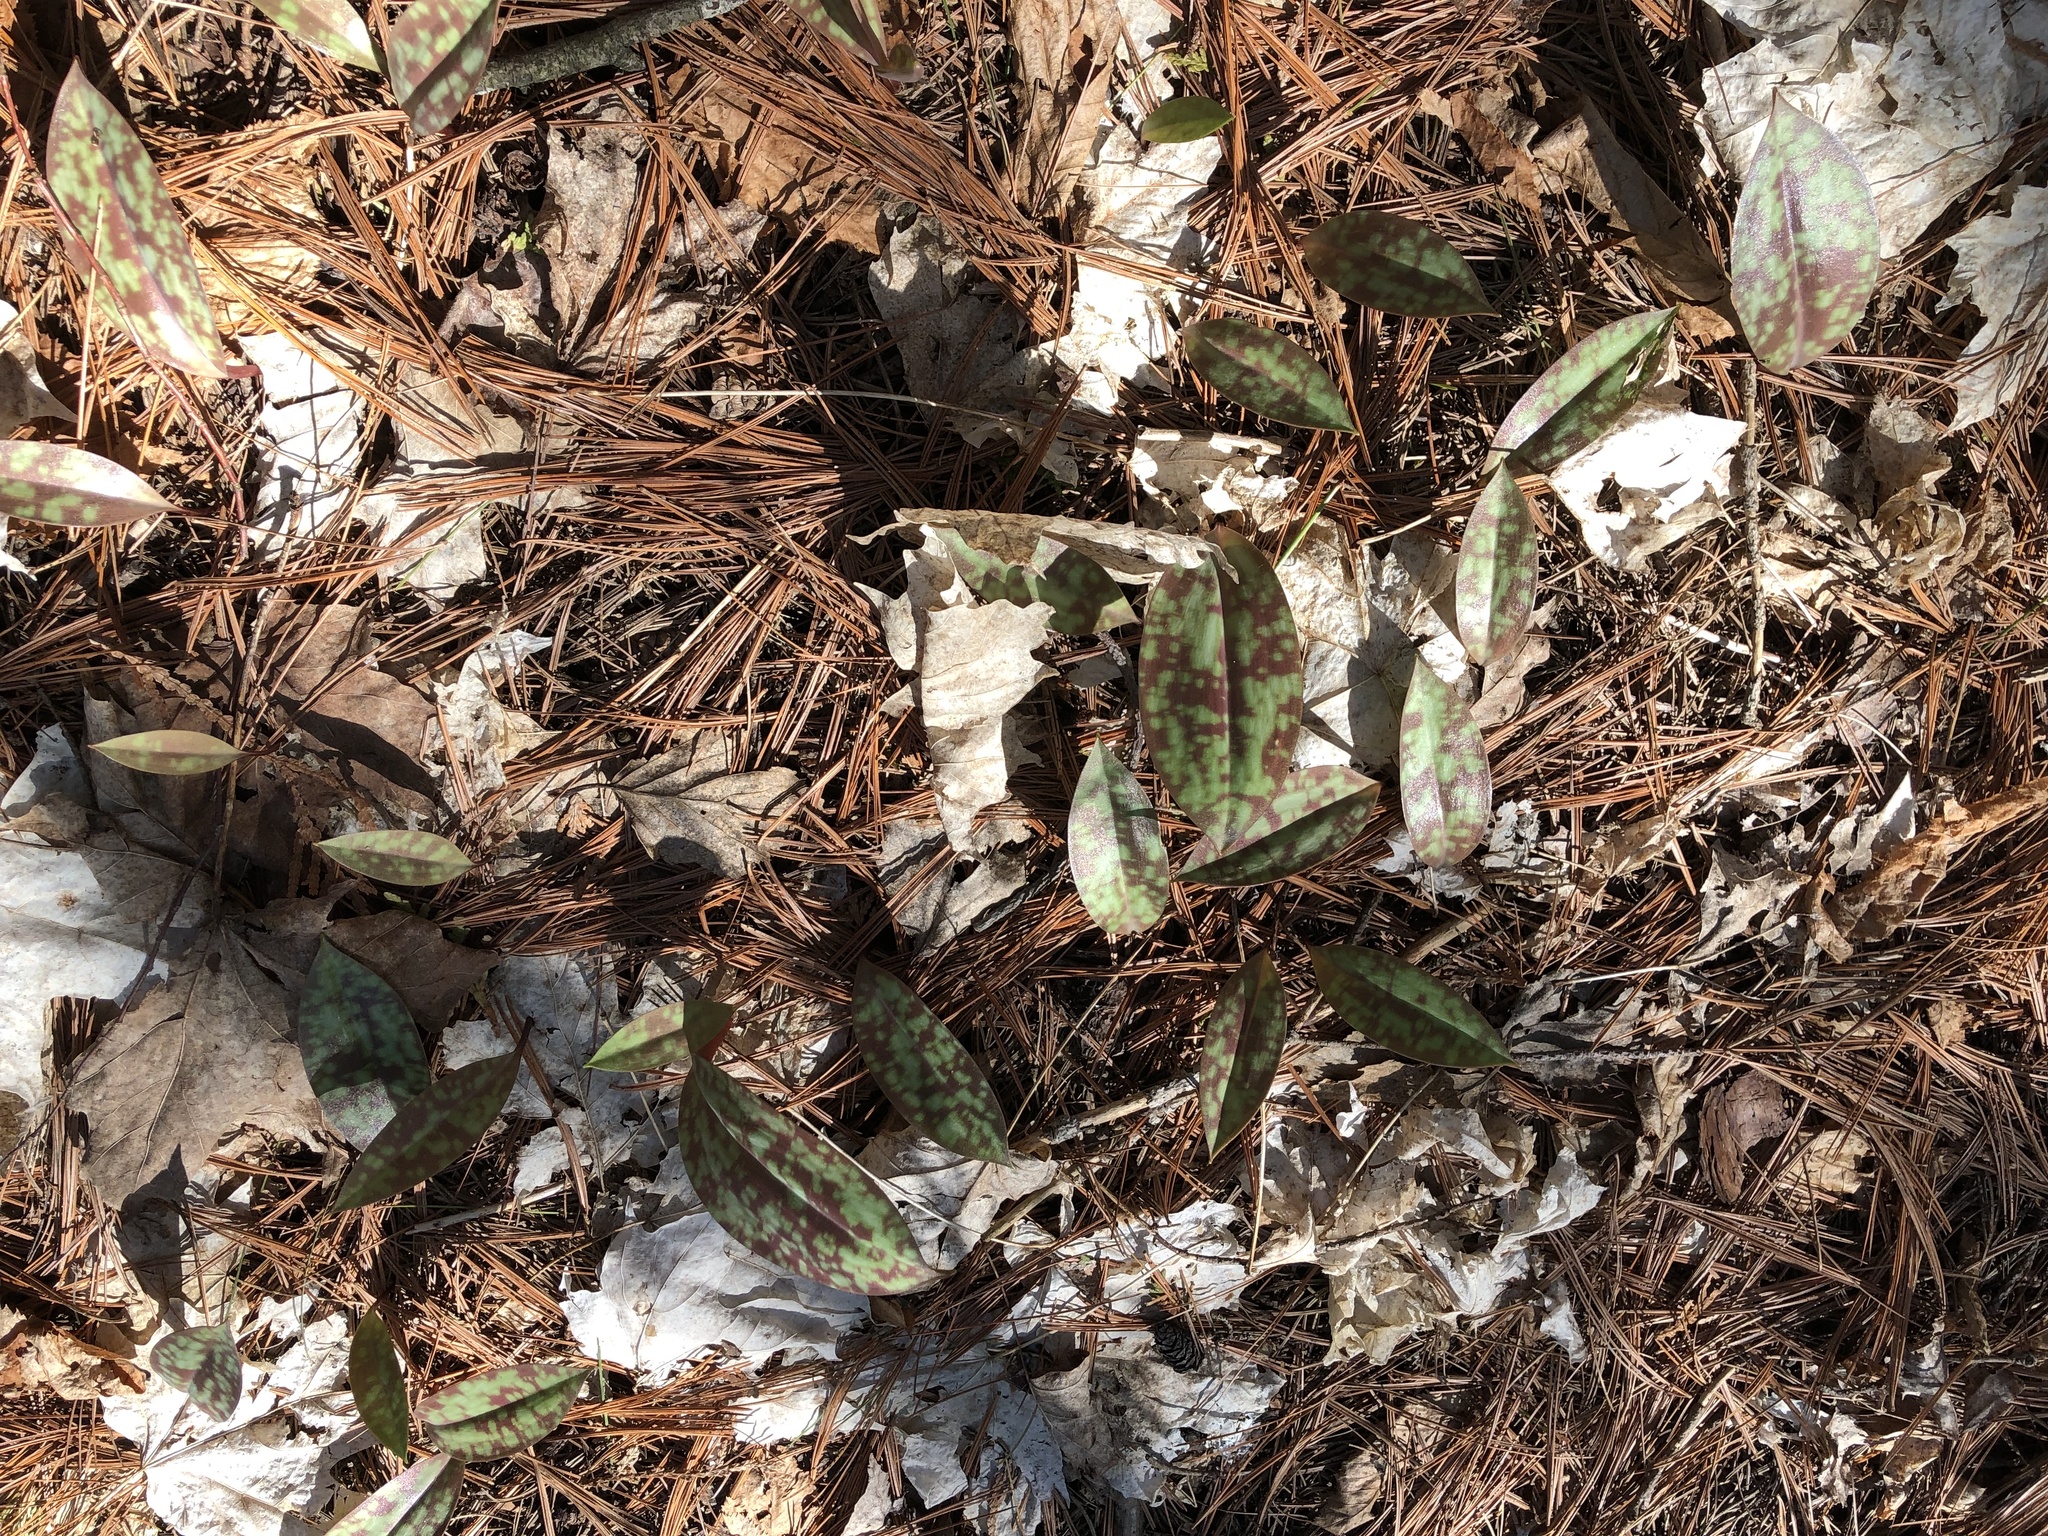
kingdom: Plantae
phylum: Tracheophyta
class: Liliopsida
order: Liliales
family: Liliaceae
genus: Erythronium
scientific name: Erythronium americanum
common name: Yellow adder's-tongue
